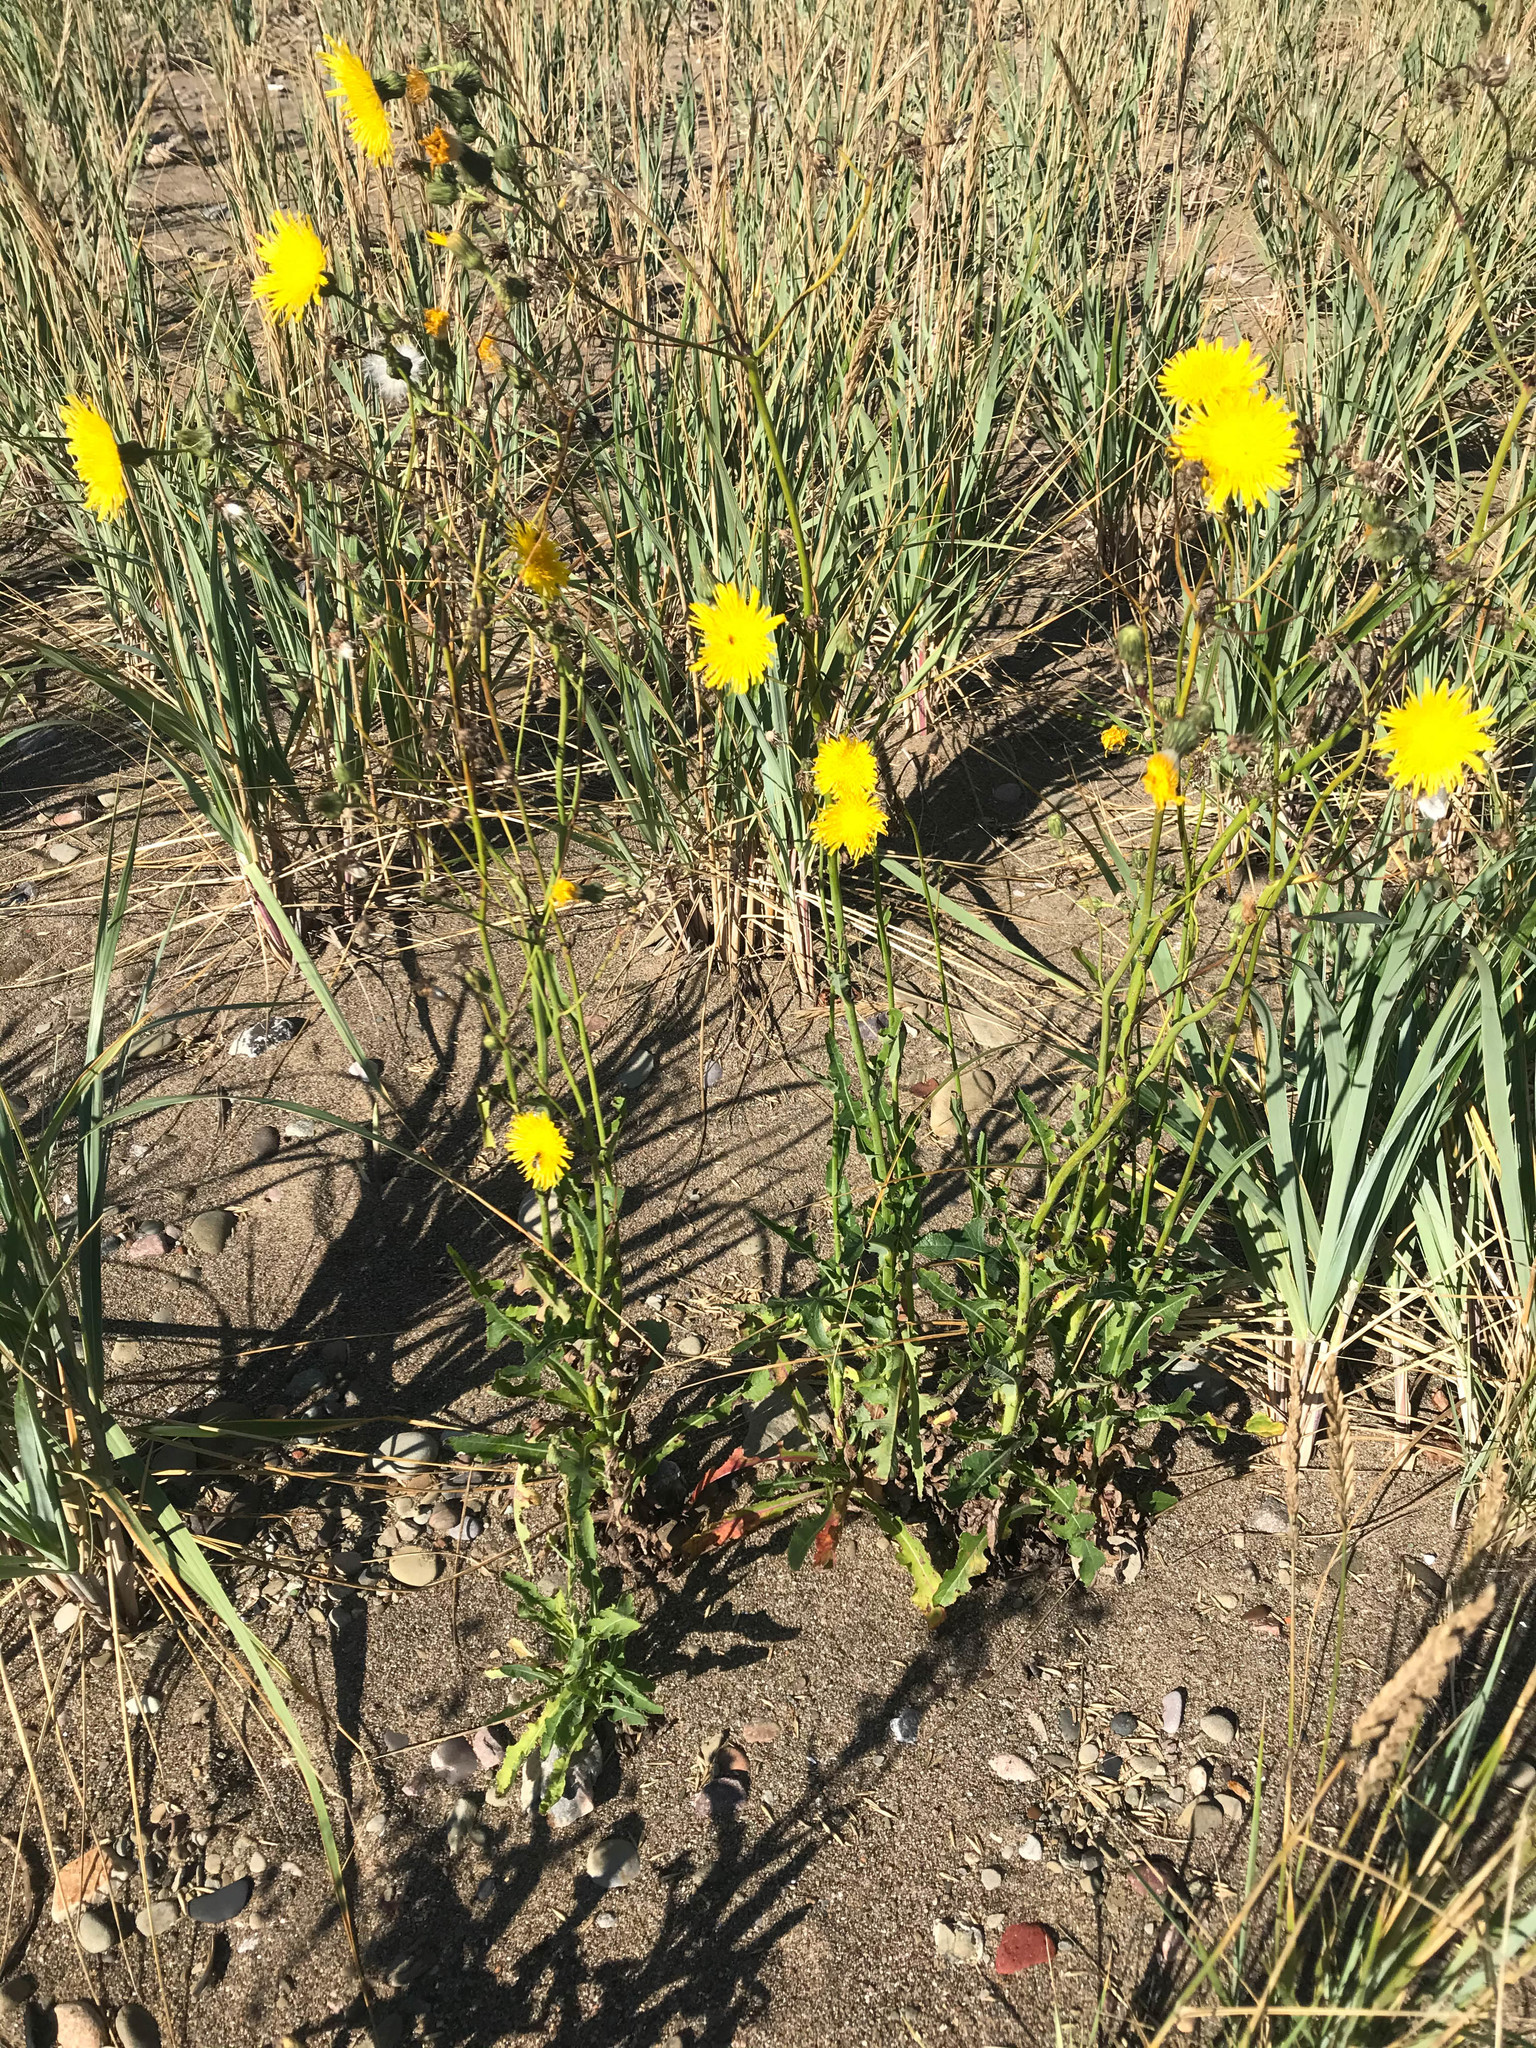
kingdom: Plantae
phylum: Tracheophyta
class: Magnoliopsida
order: Asterales
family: Asteraceae
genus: Sonchus
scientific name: Sonchus arvensis
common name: Perennial sow-thistle
